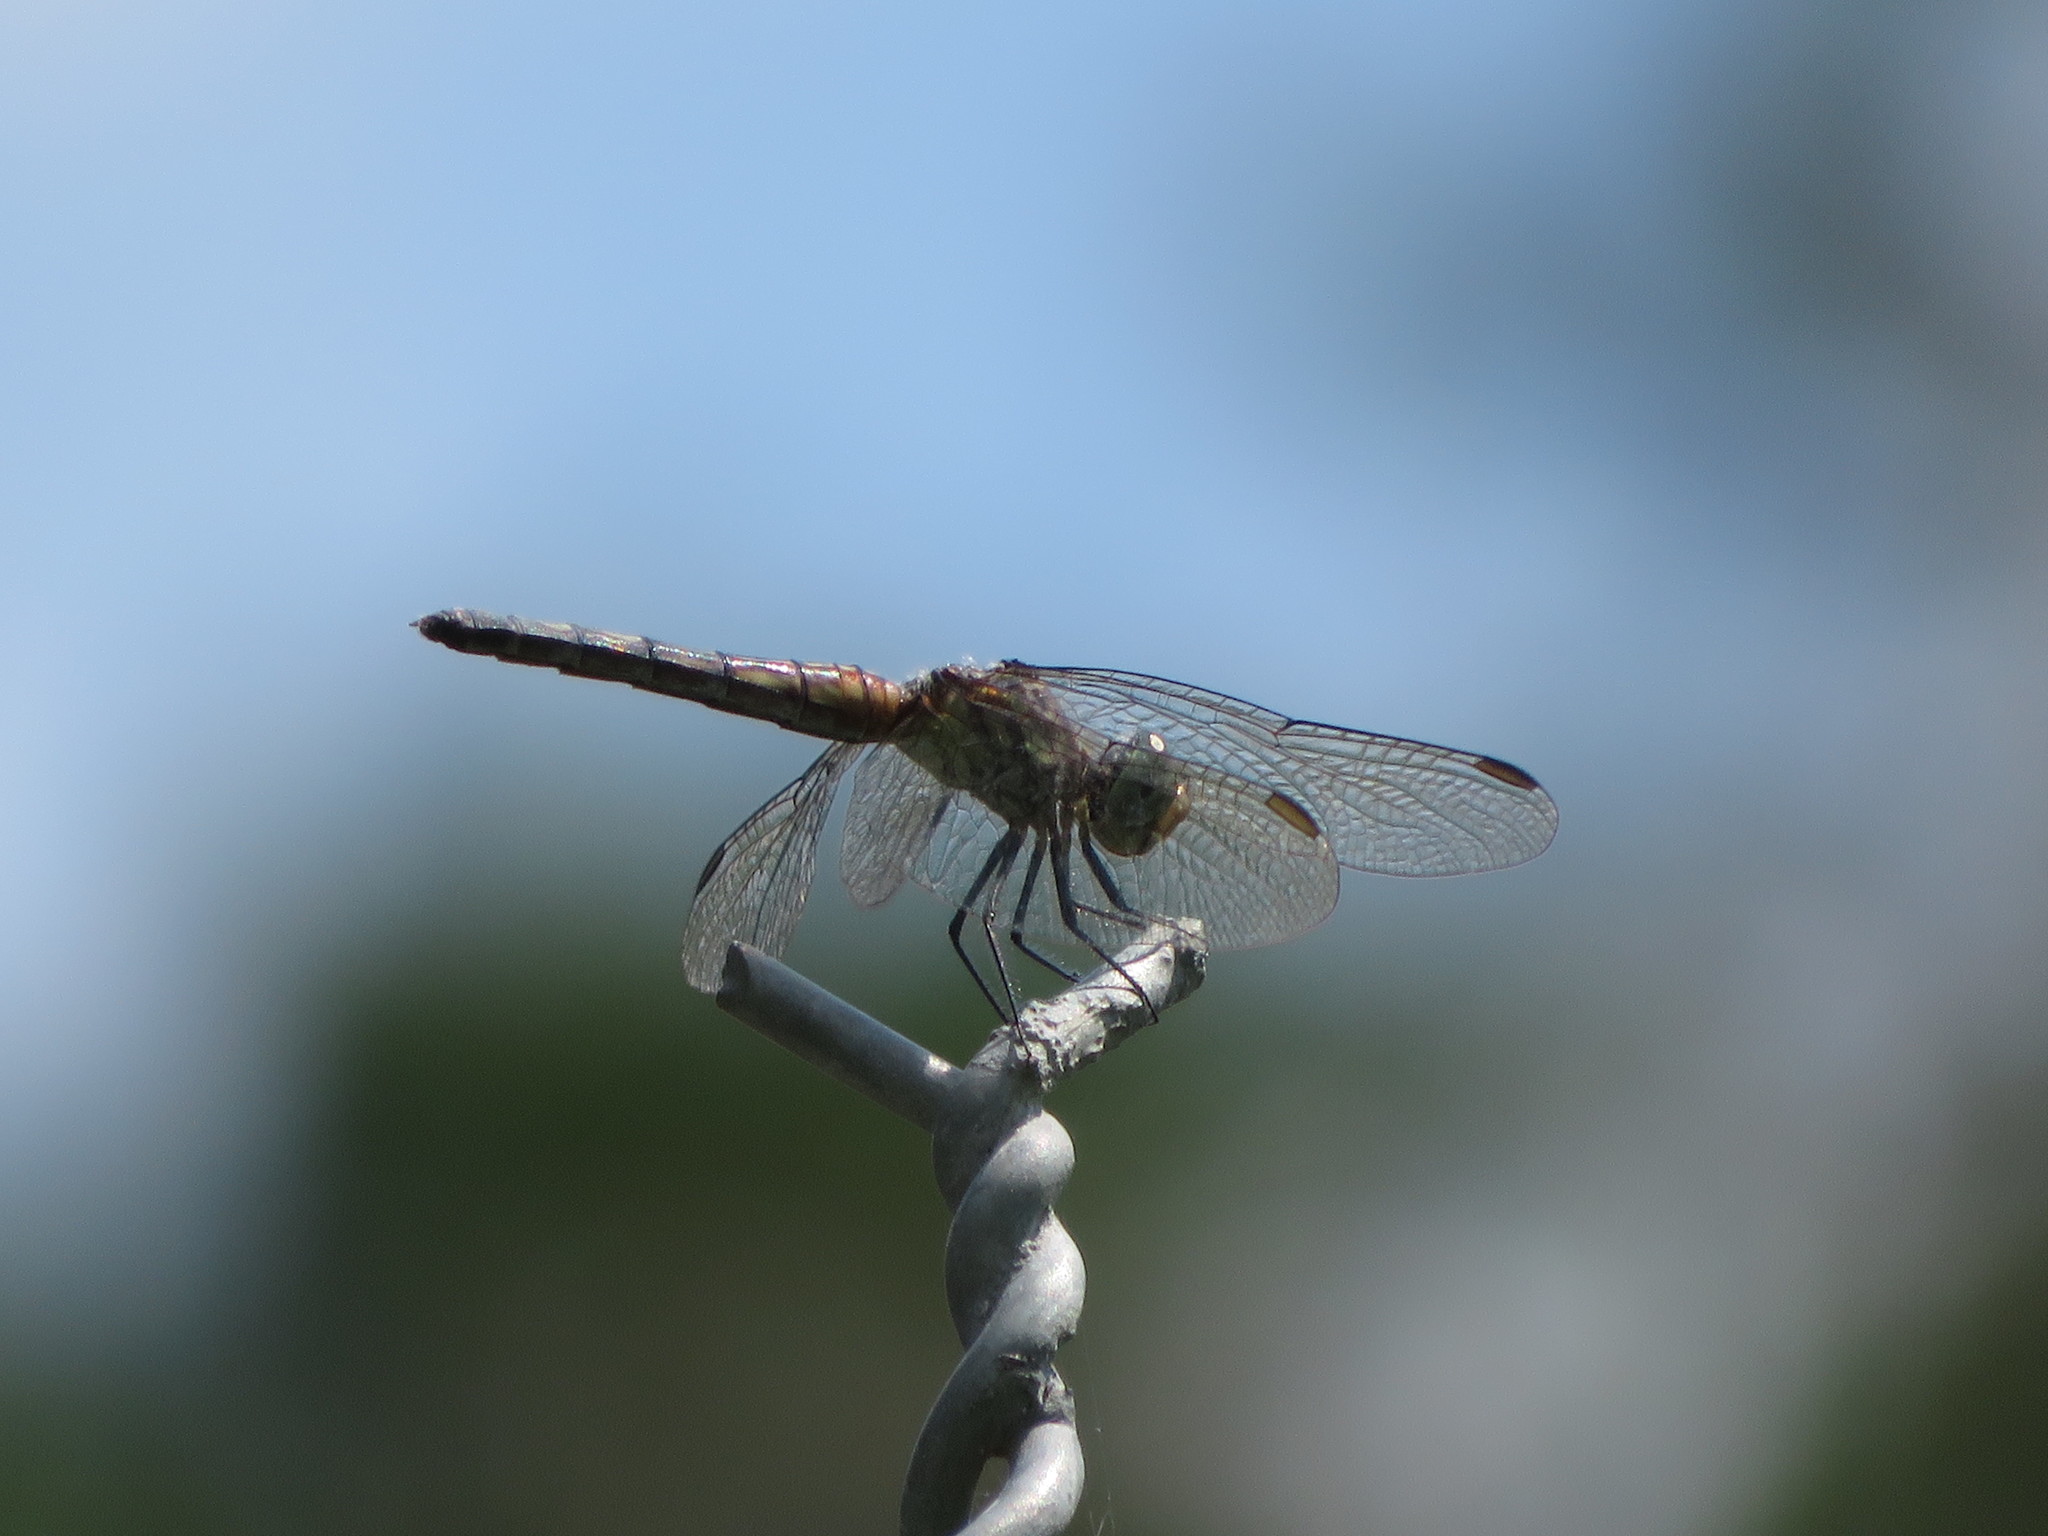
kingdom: Animalia
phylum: Arthropoda
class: Insecta
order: Odonata
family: Libellulidae
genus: Pachydiplax
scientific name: Pachydiplax longipennis
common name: Blue dasher
